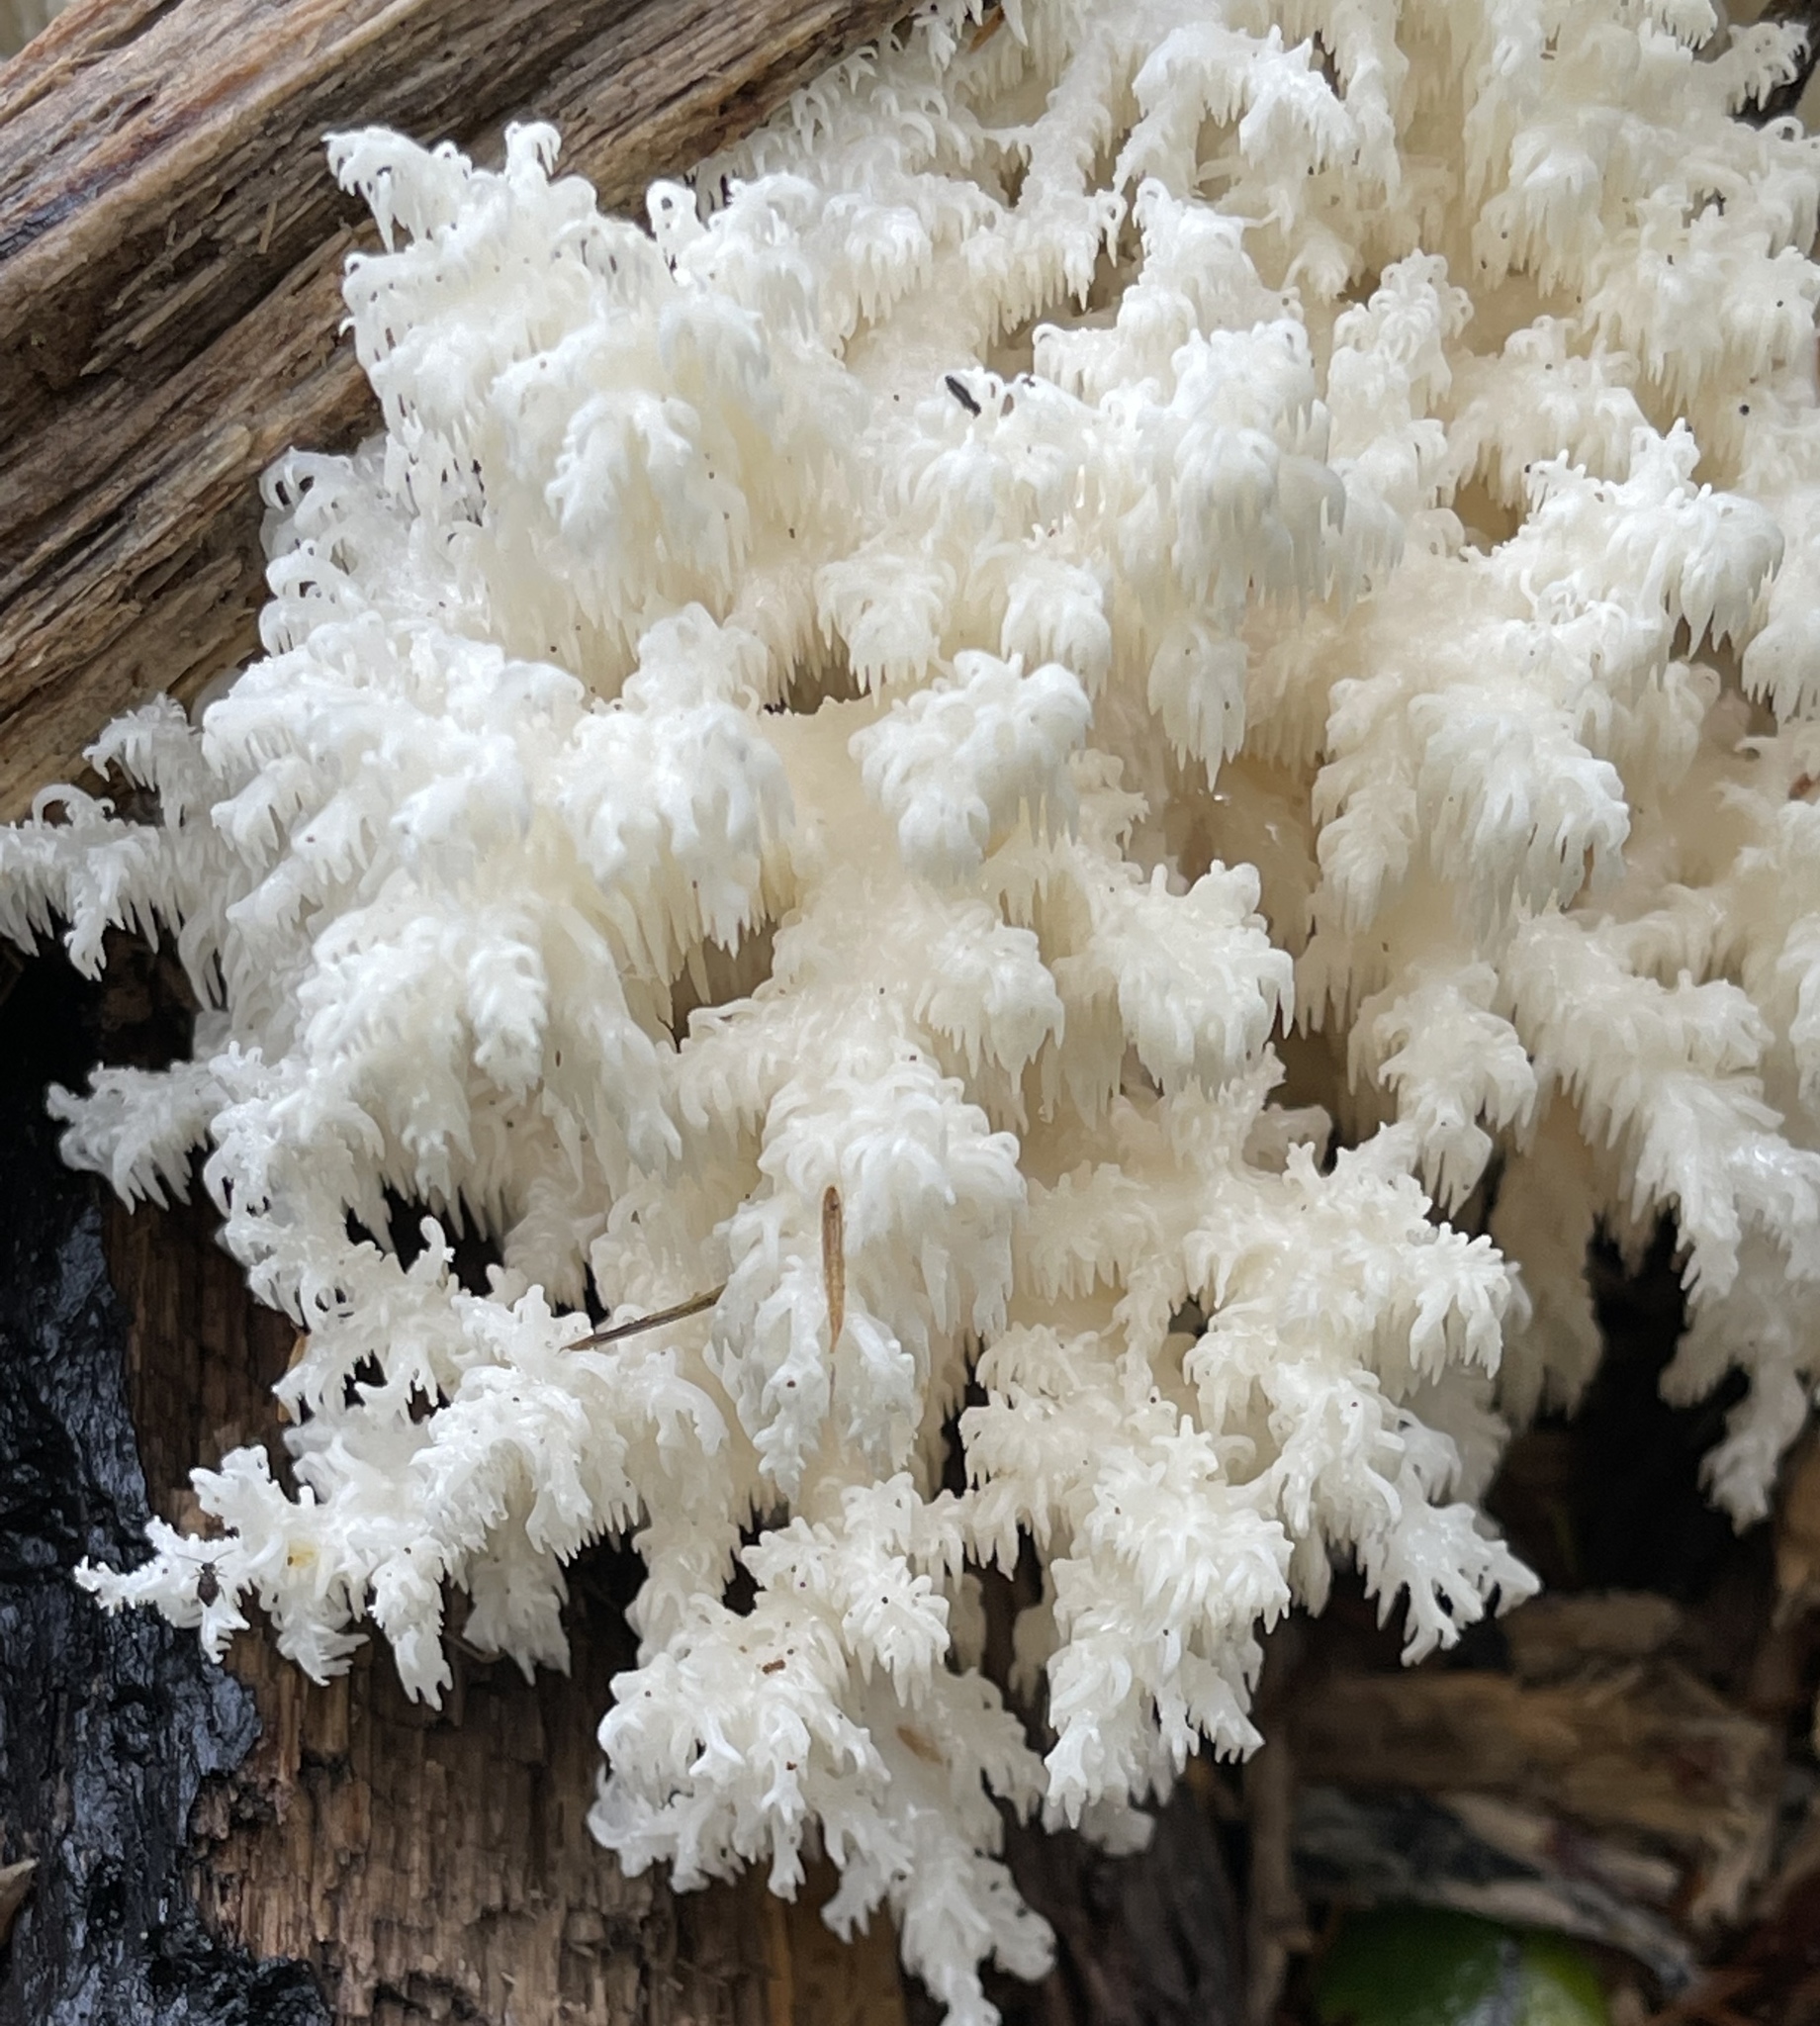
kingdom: Fungi
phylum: Basidiomycota
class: Agaricomycetes
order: Russulales
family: Hericiaceae
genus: Hericium
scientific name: Hericium coralloides
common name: Coral tooth
